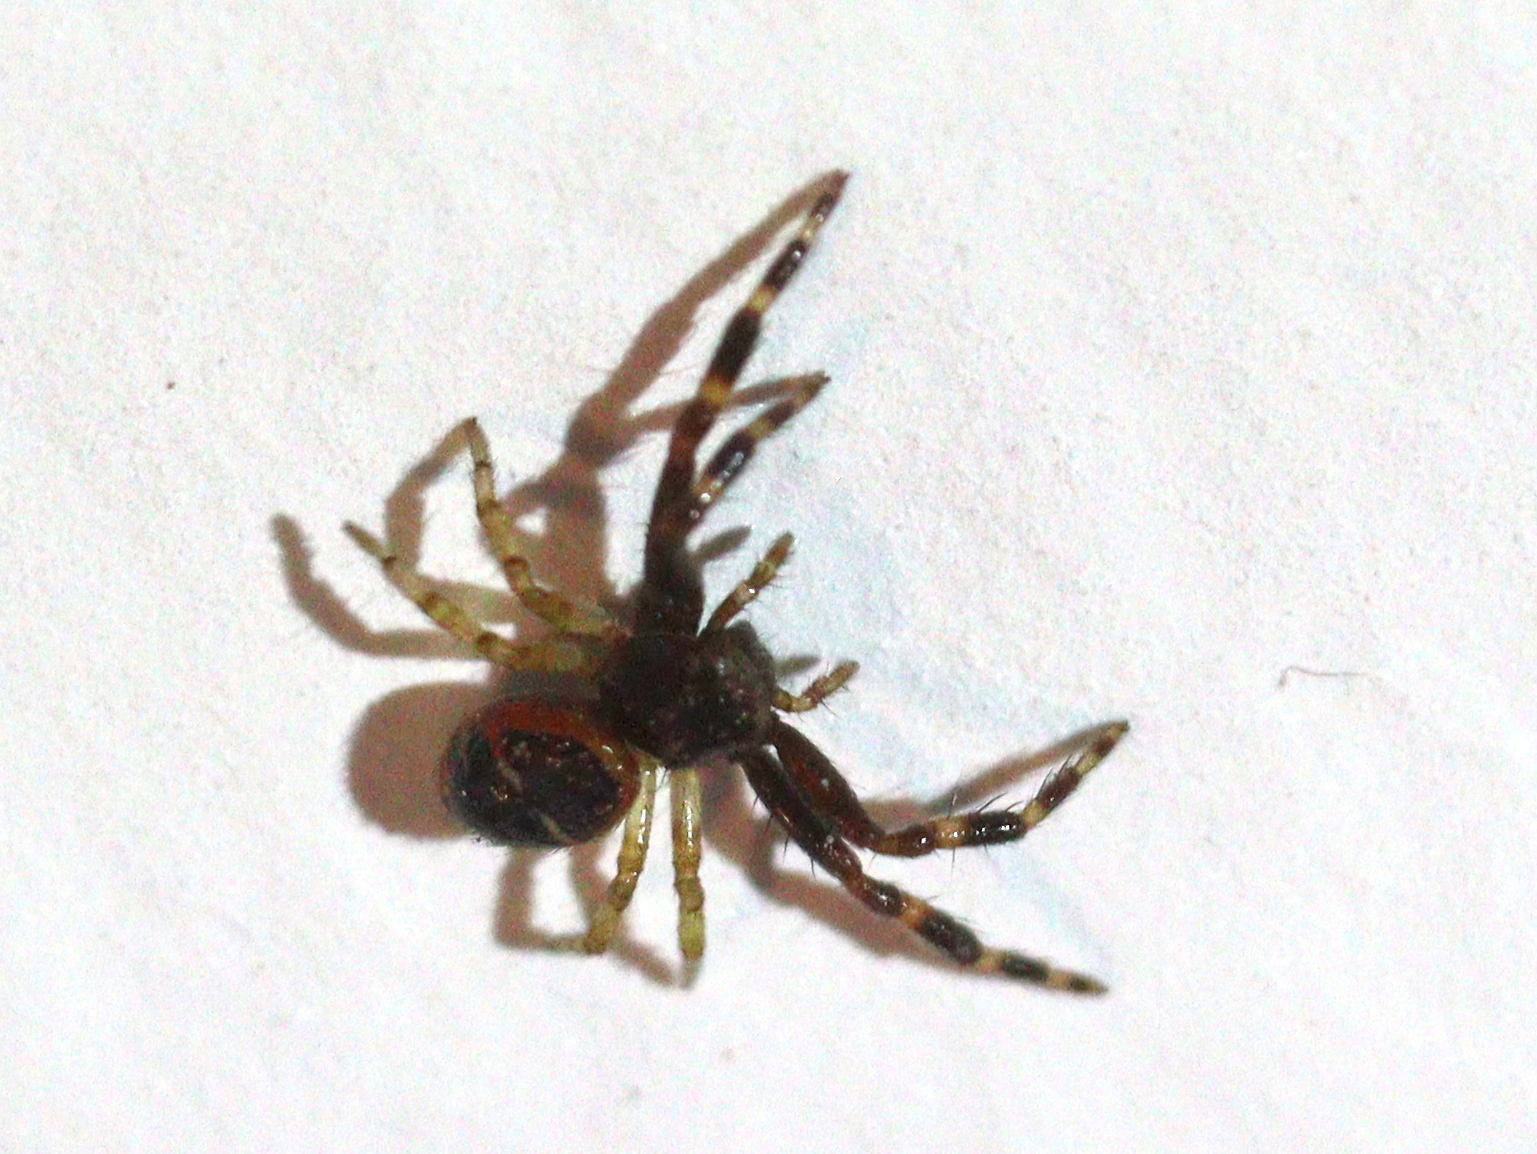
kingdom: Animalia
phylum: Arthropoda
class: Arachnida
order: Araneae
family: Thomisidae
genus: Synema
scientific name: Synema globosum
